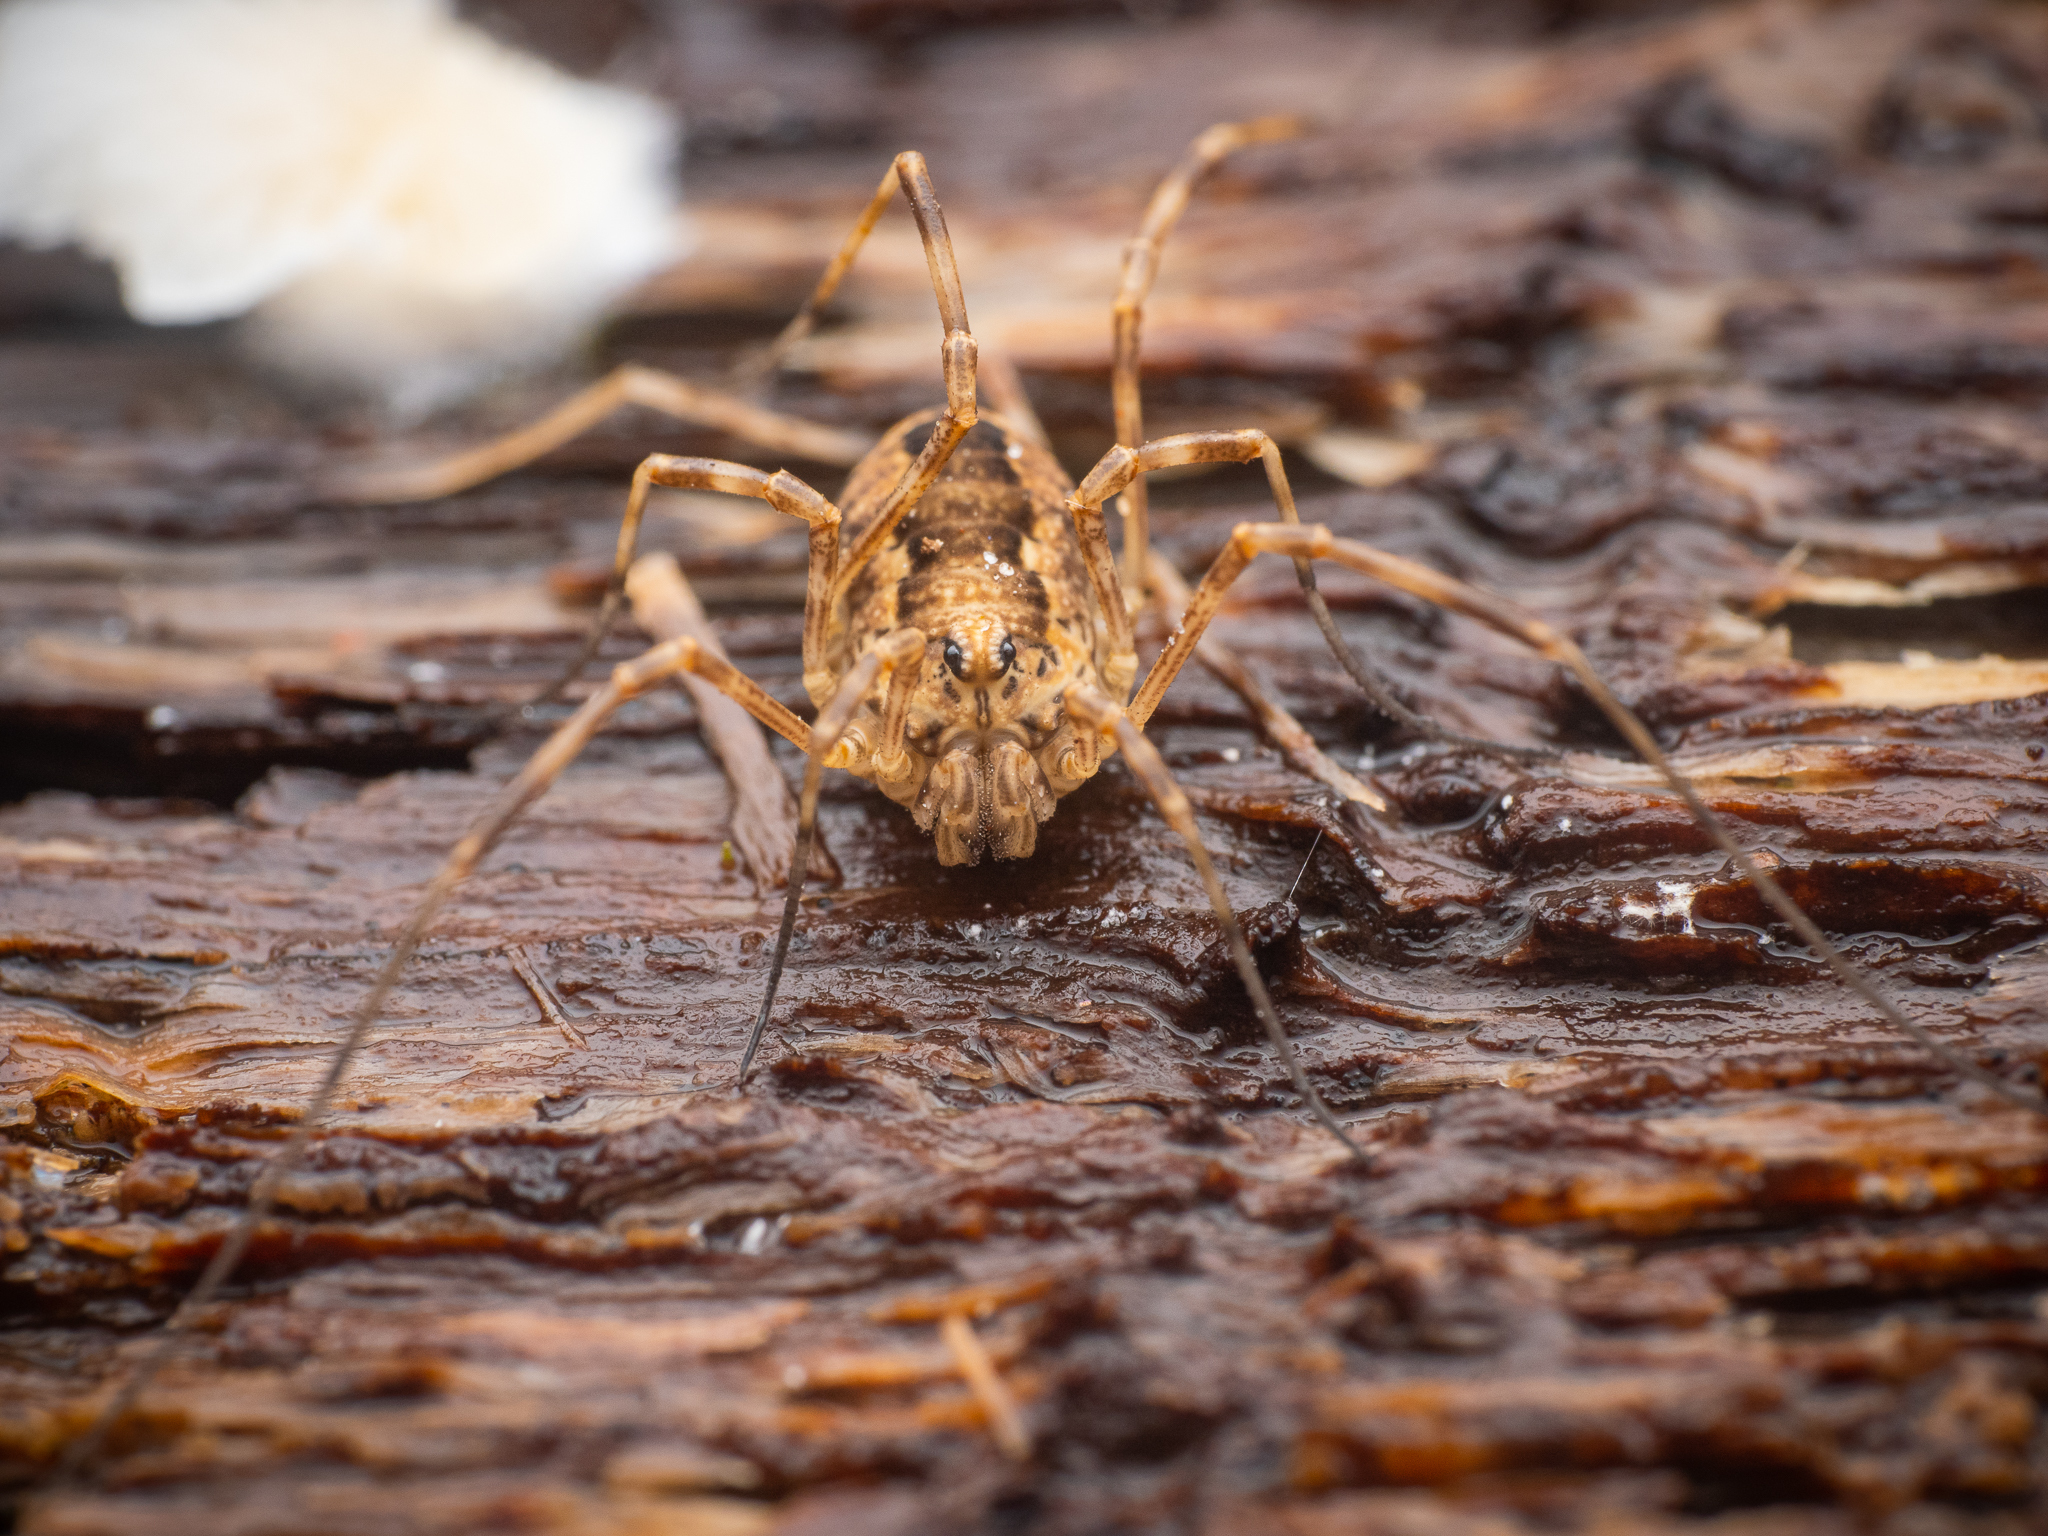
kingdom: Animalia
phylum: Arthropoda
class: Arachnida
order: Opiliones
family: Phalangiidae
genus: Rilaena
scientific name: Rilaena triangularis
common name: Spring harvestman
